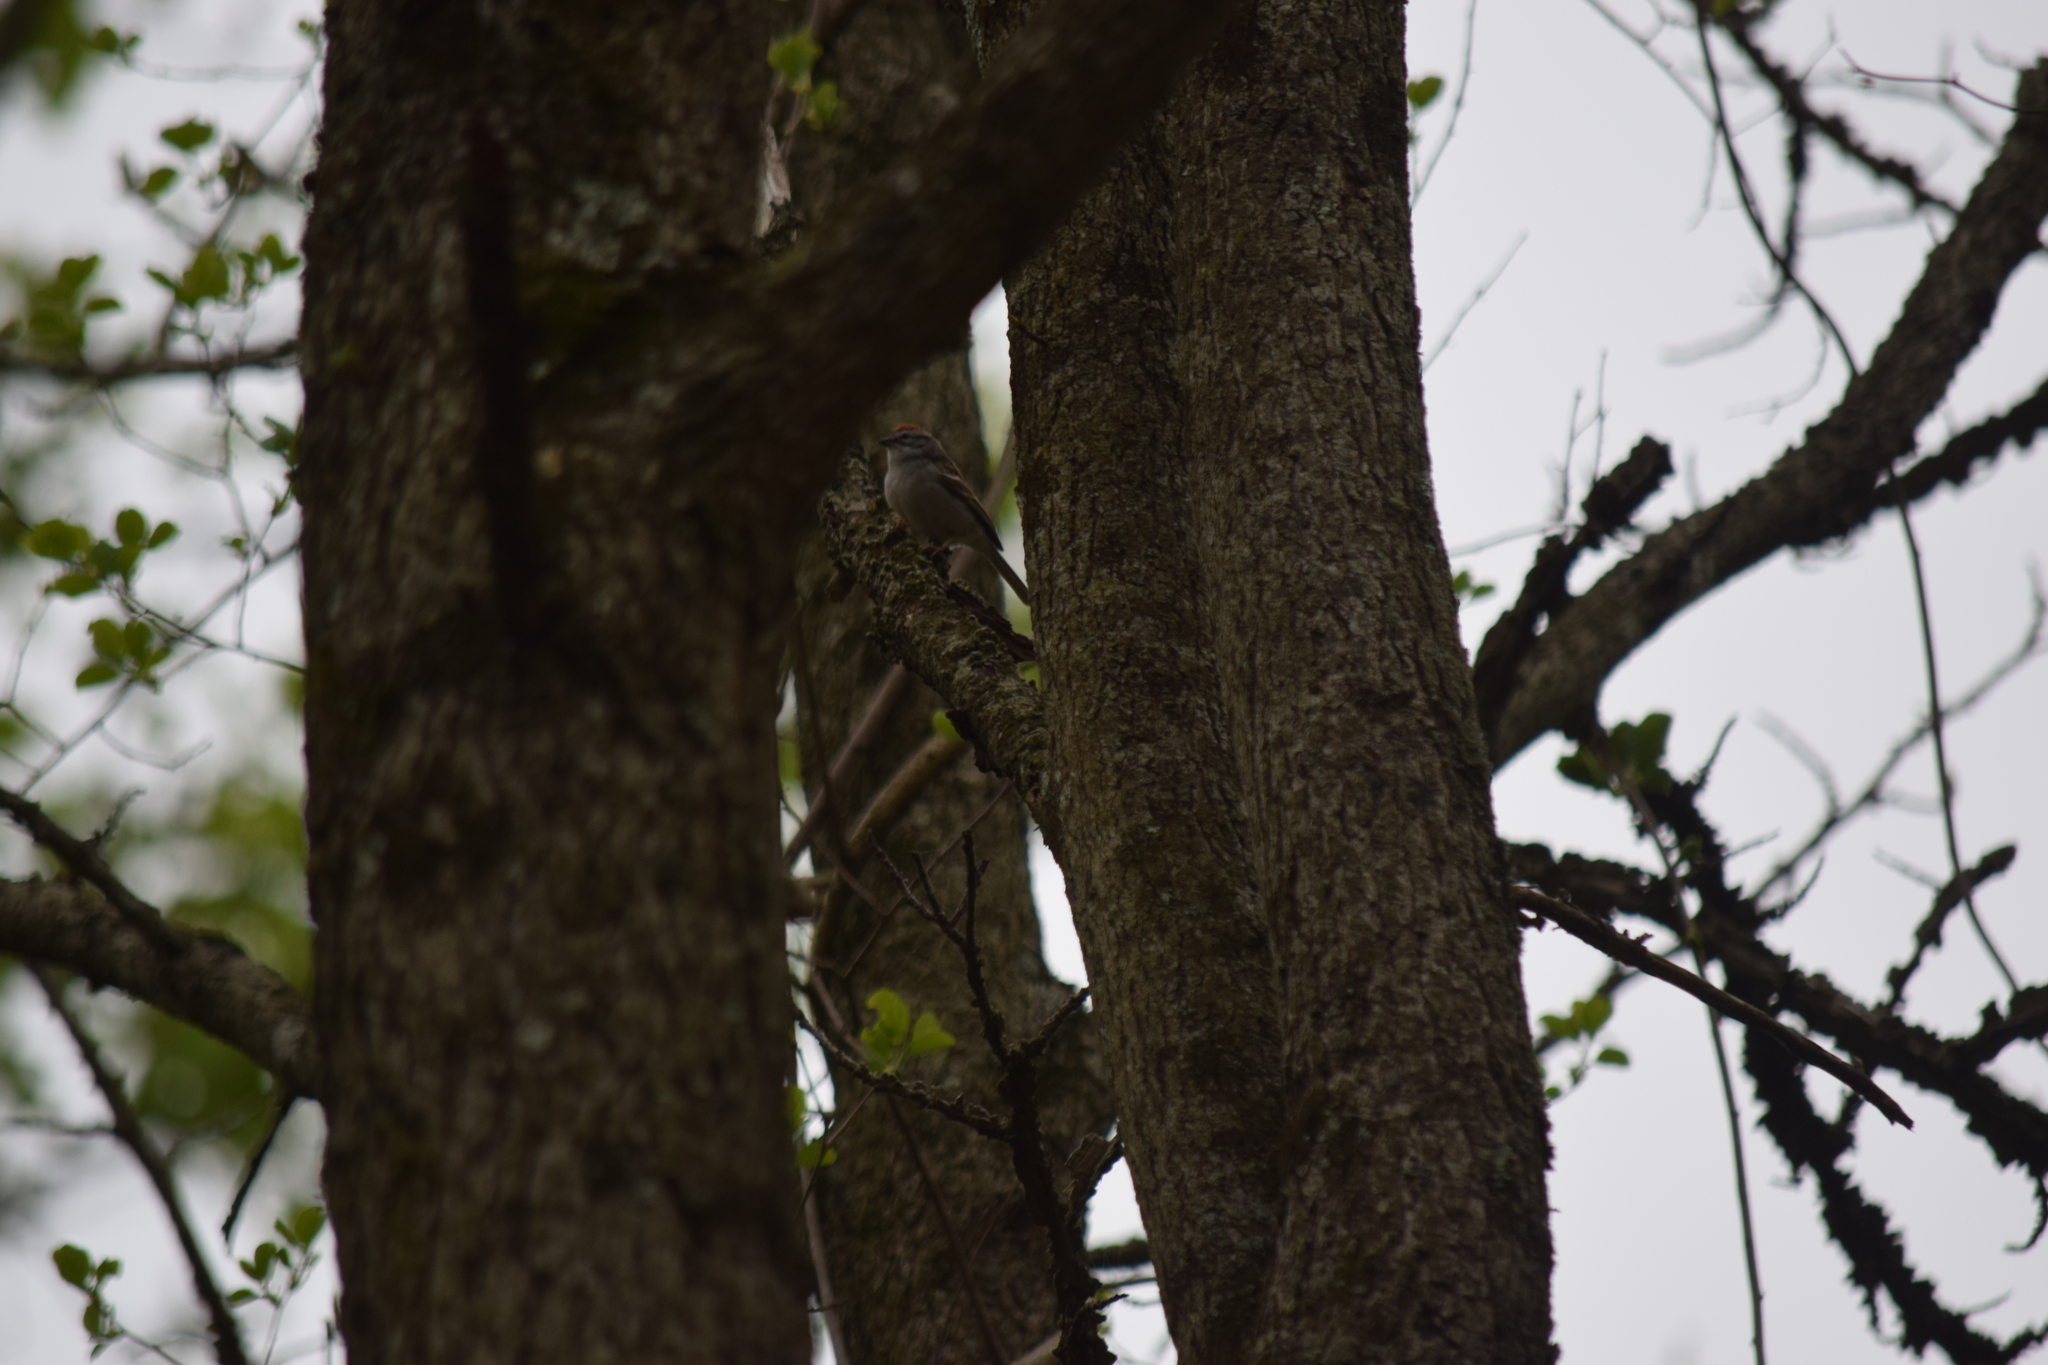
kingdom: Animalia
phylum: Chordata
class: Aves
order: Passeriformes
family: Passerellidae
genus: Spizella
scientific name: Spizella passerina
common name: Chipping sparrow
